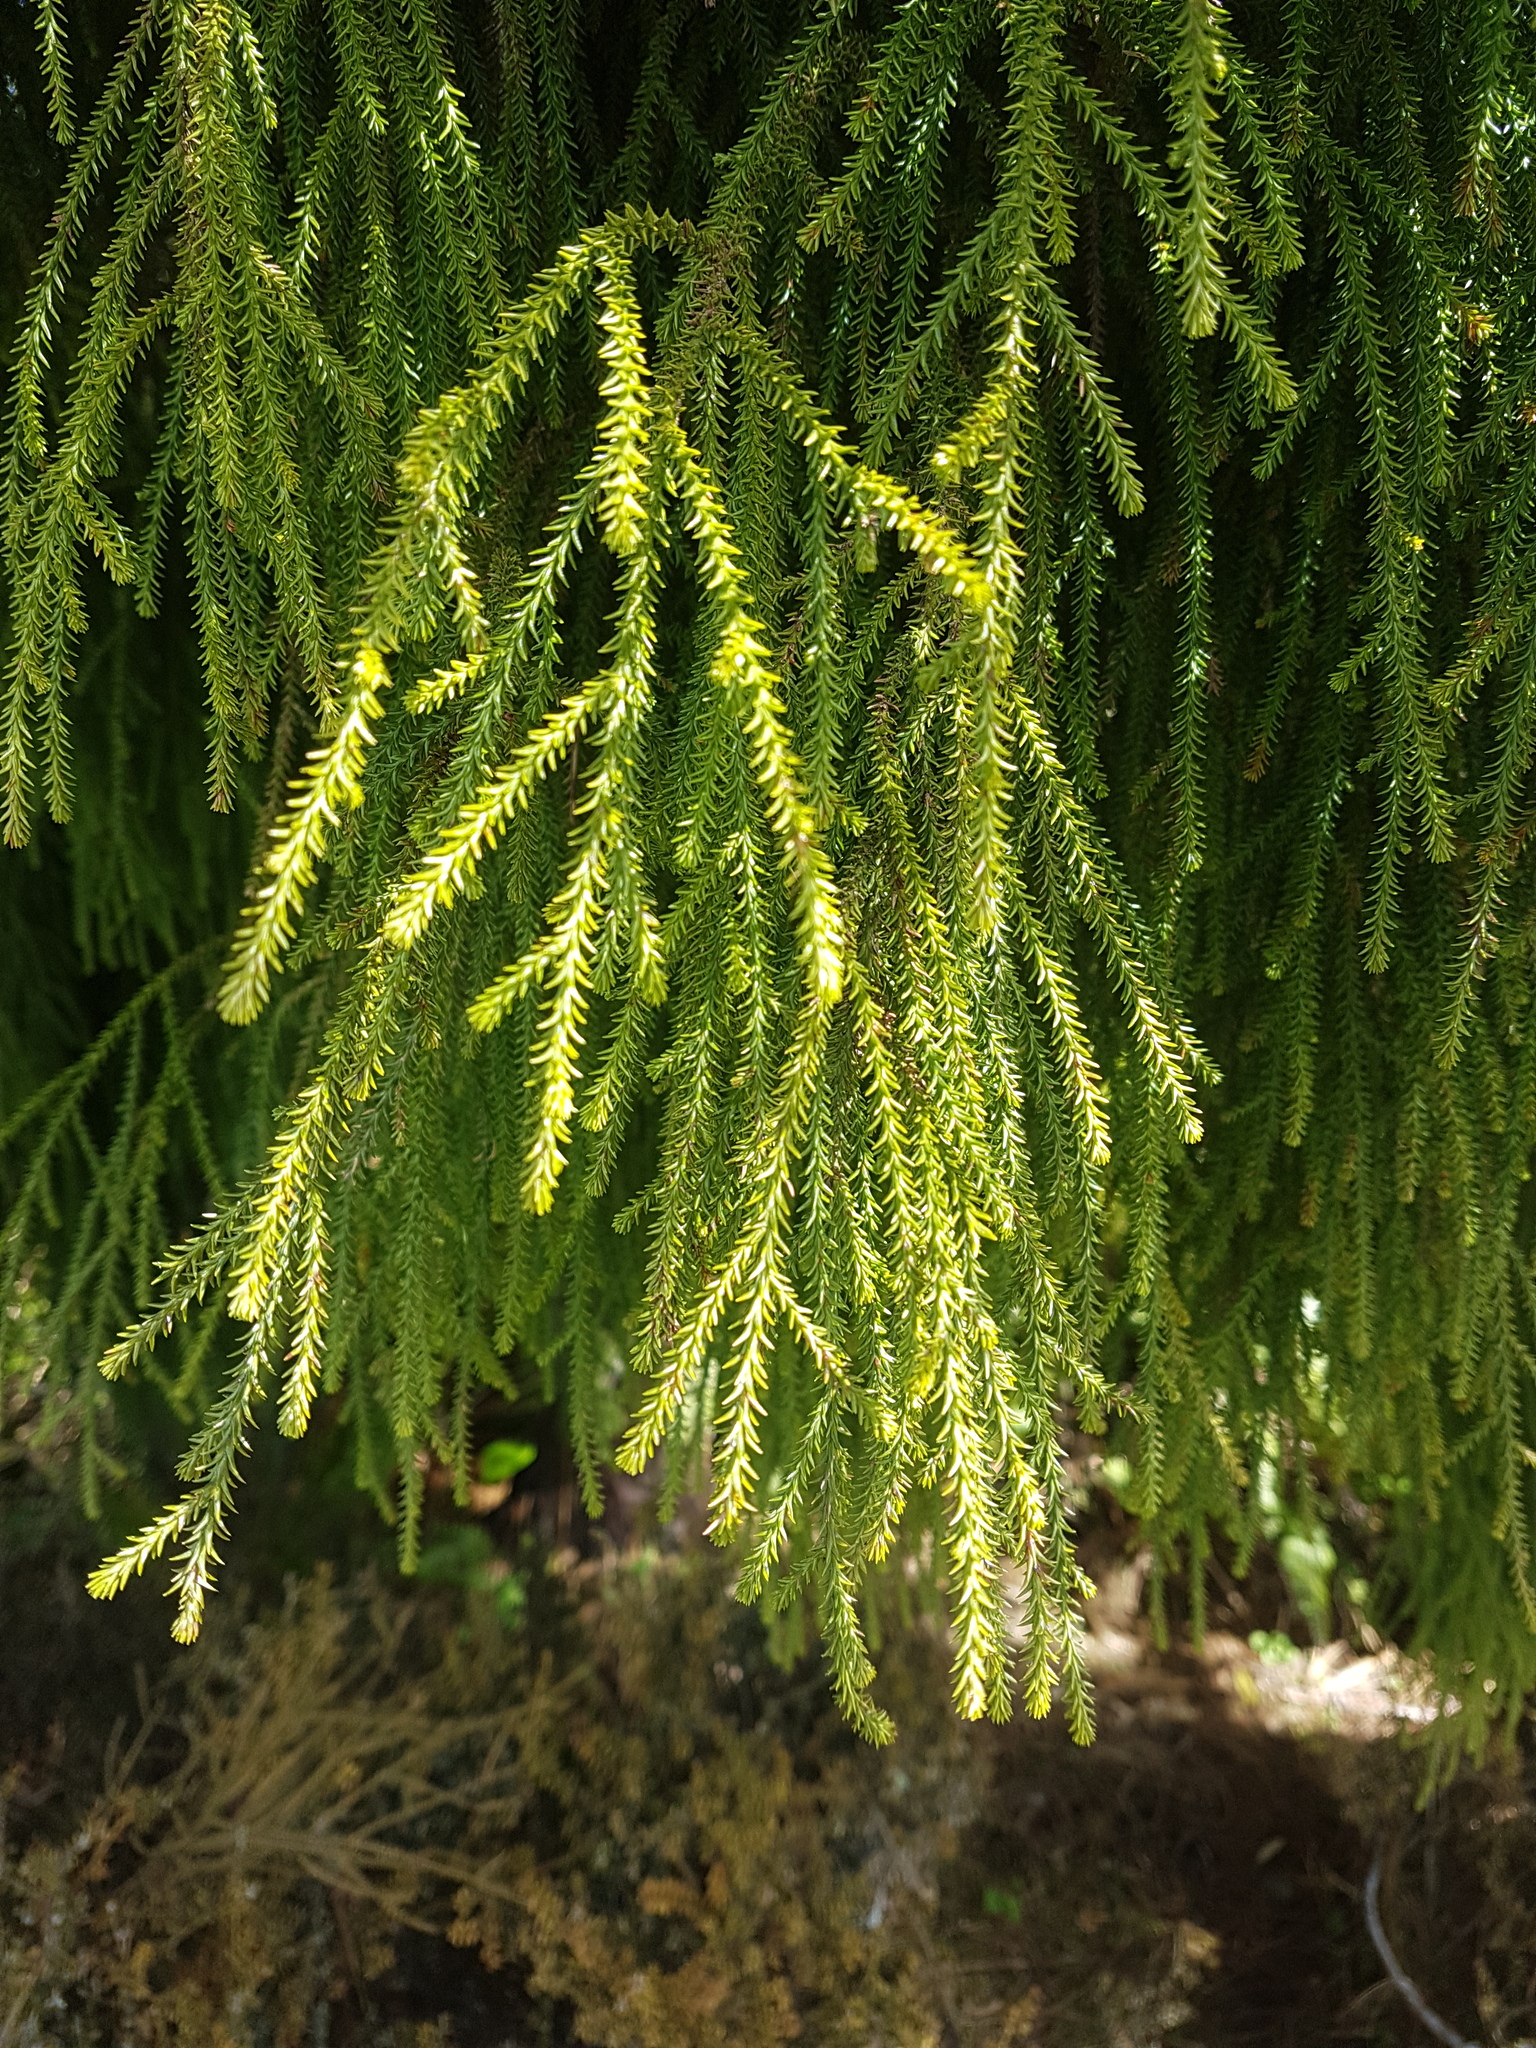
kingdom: Plantae
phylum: Tracheophyta
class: Pinopsida
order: Pinales
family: Podocarpaceae
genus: Dacrydium
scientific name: Dacrydium cupressinum
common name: Red pine
